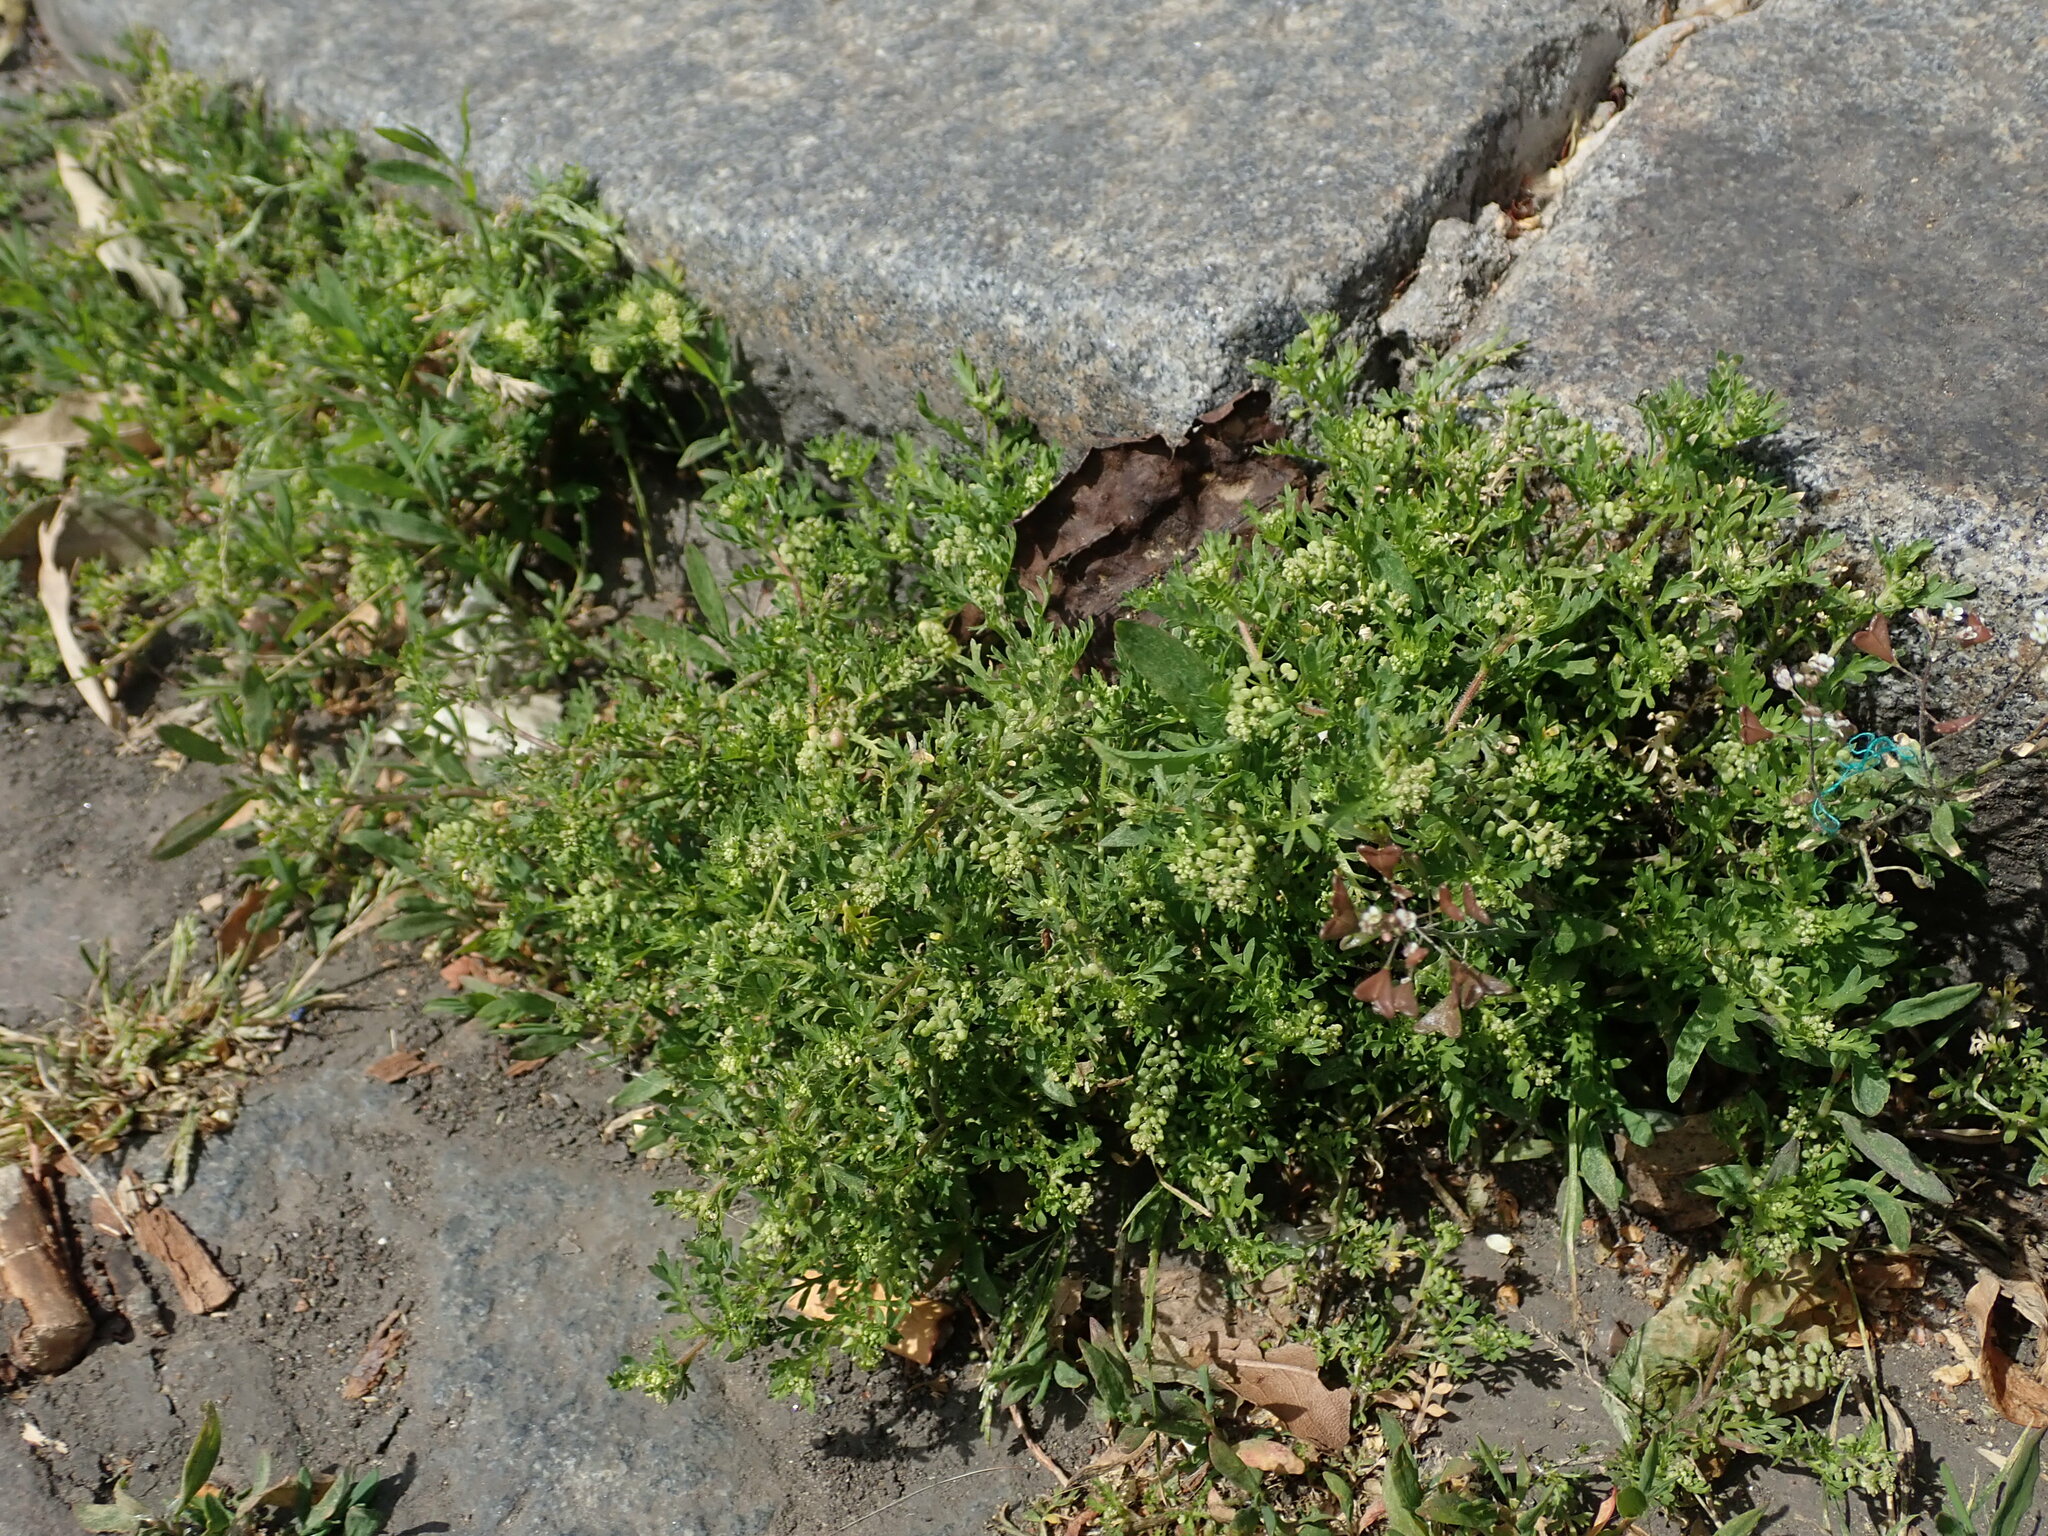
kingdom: Plantae
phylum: Tracheophyta
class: Magnoliopsida
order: Brassicales
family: Brassicaceae
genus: Lepidium
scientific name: Lepidium didymum
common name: Lesser swinecress
